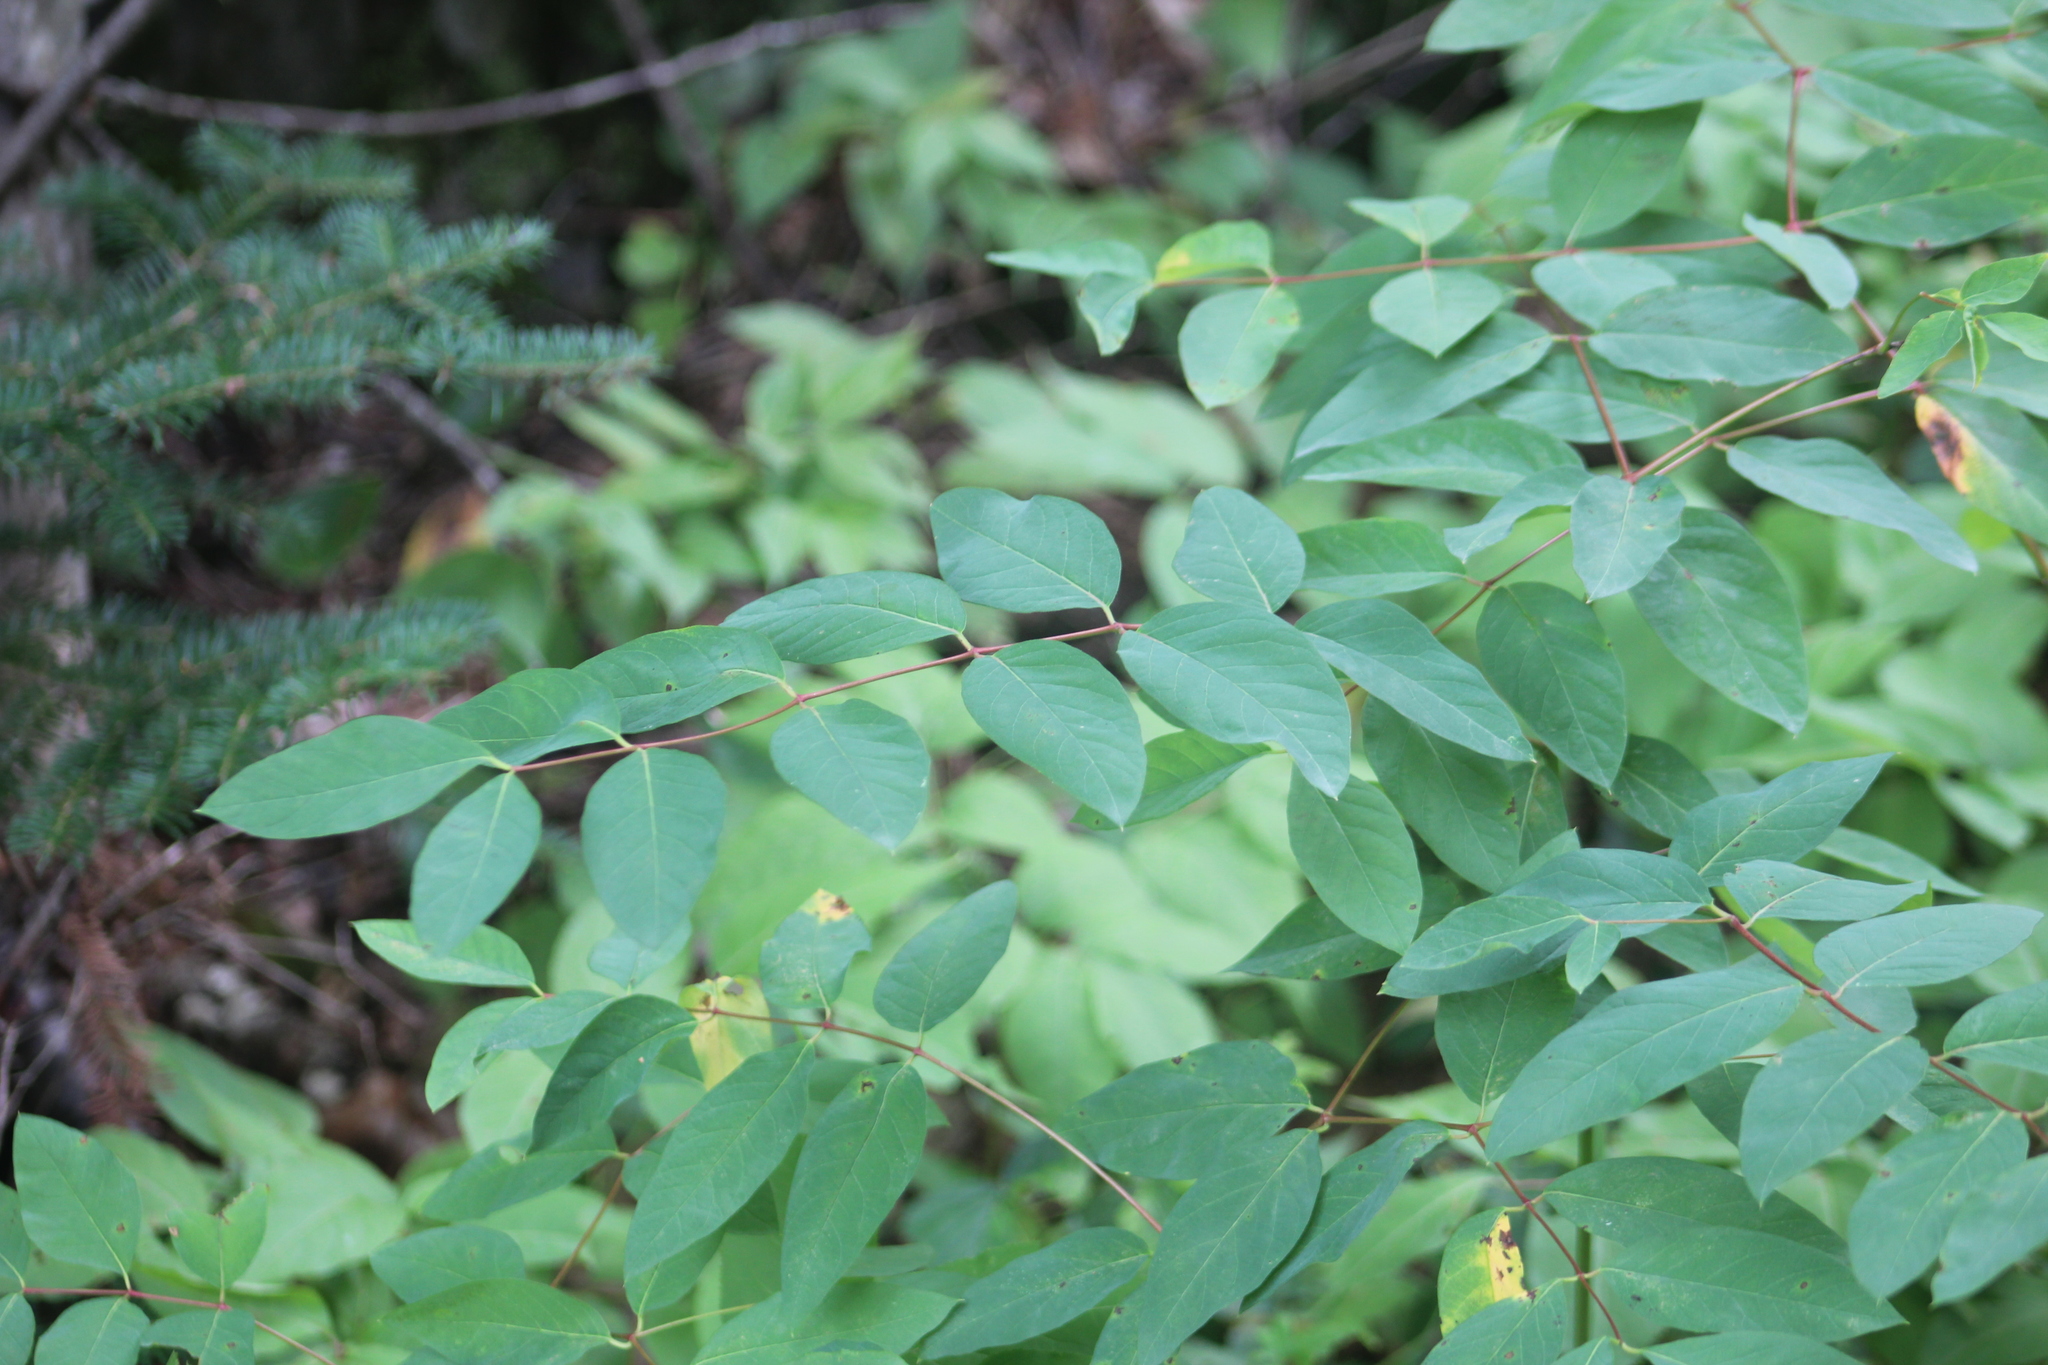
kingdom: Plantae
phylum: Tracheophyta
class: Magnoliopsida
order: Gentianales
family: Apocynaceae
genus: Apocynum
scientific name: Apocynum androsaemifolium
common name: Spreading dogbane
